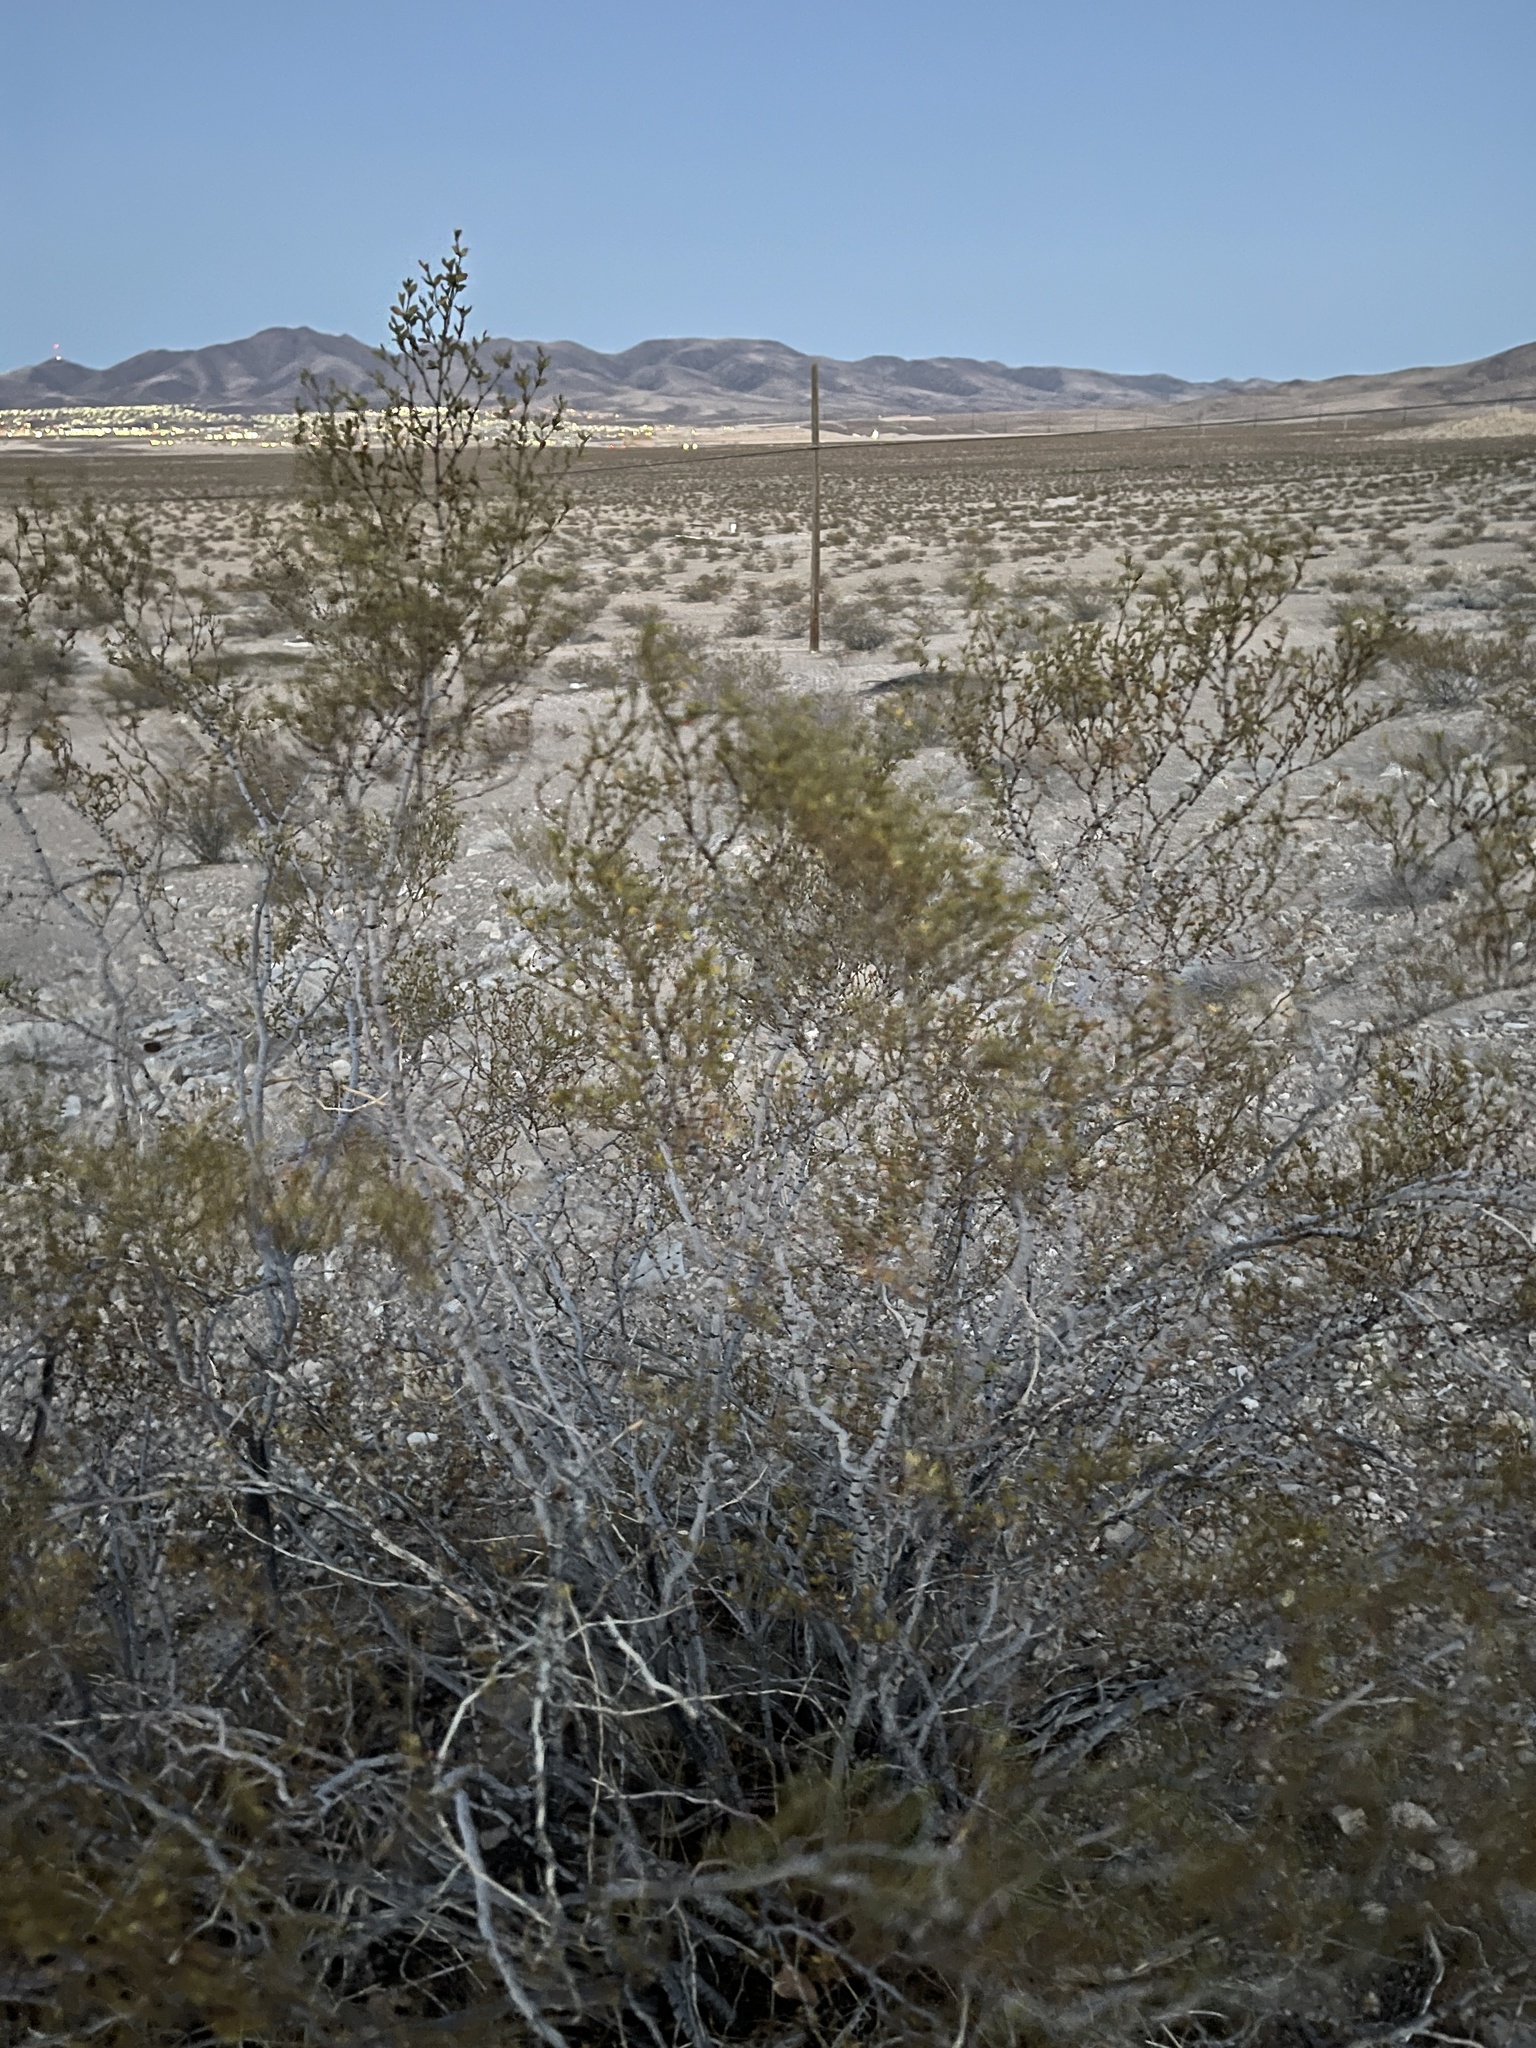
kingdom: Plantae
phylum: Tracheophyta
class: Magnoliopsida
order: Zygophyllales
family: Zygophyllaceae
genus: Larrea
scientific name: Larrea tridentata
